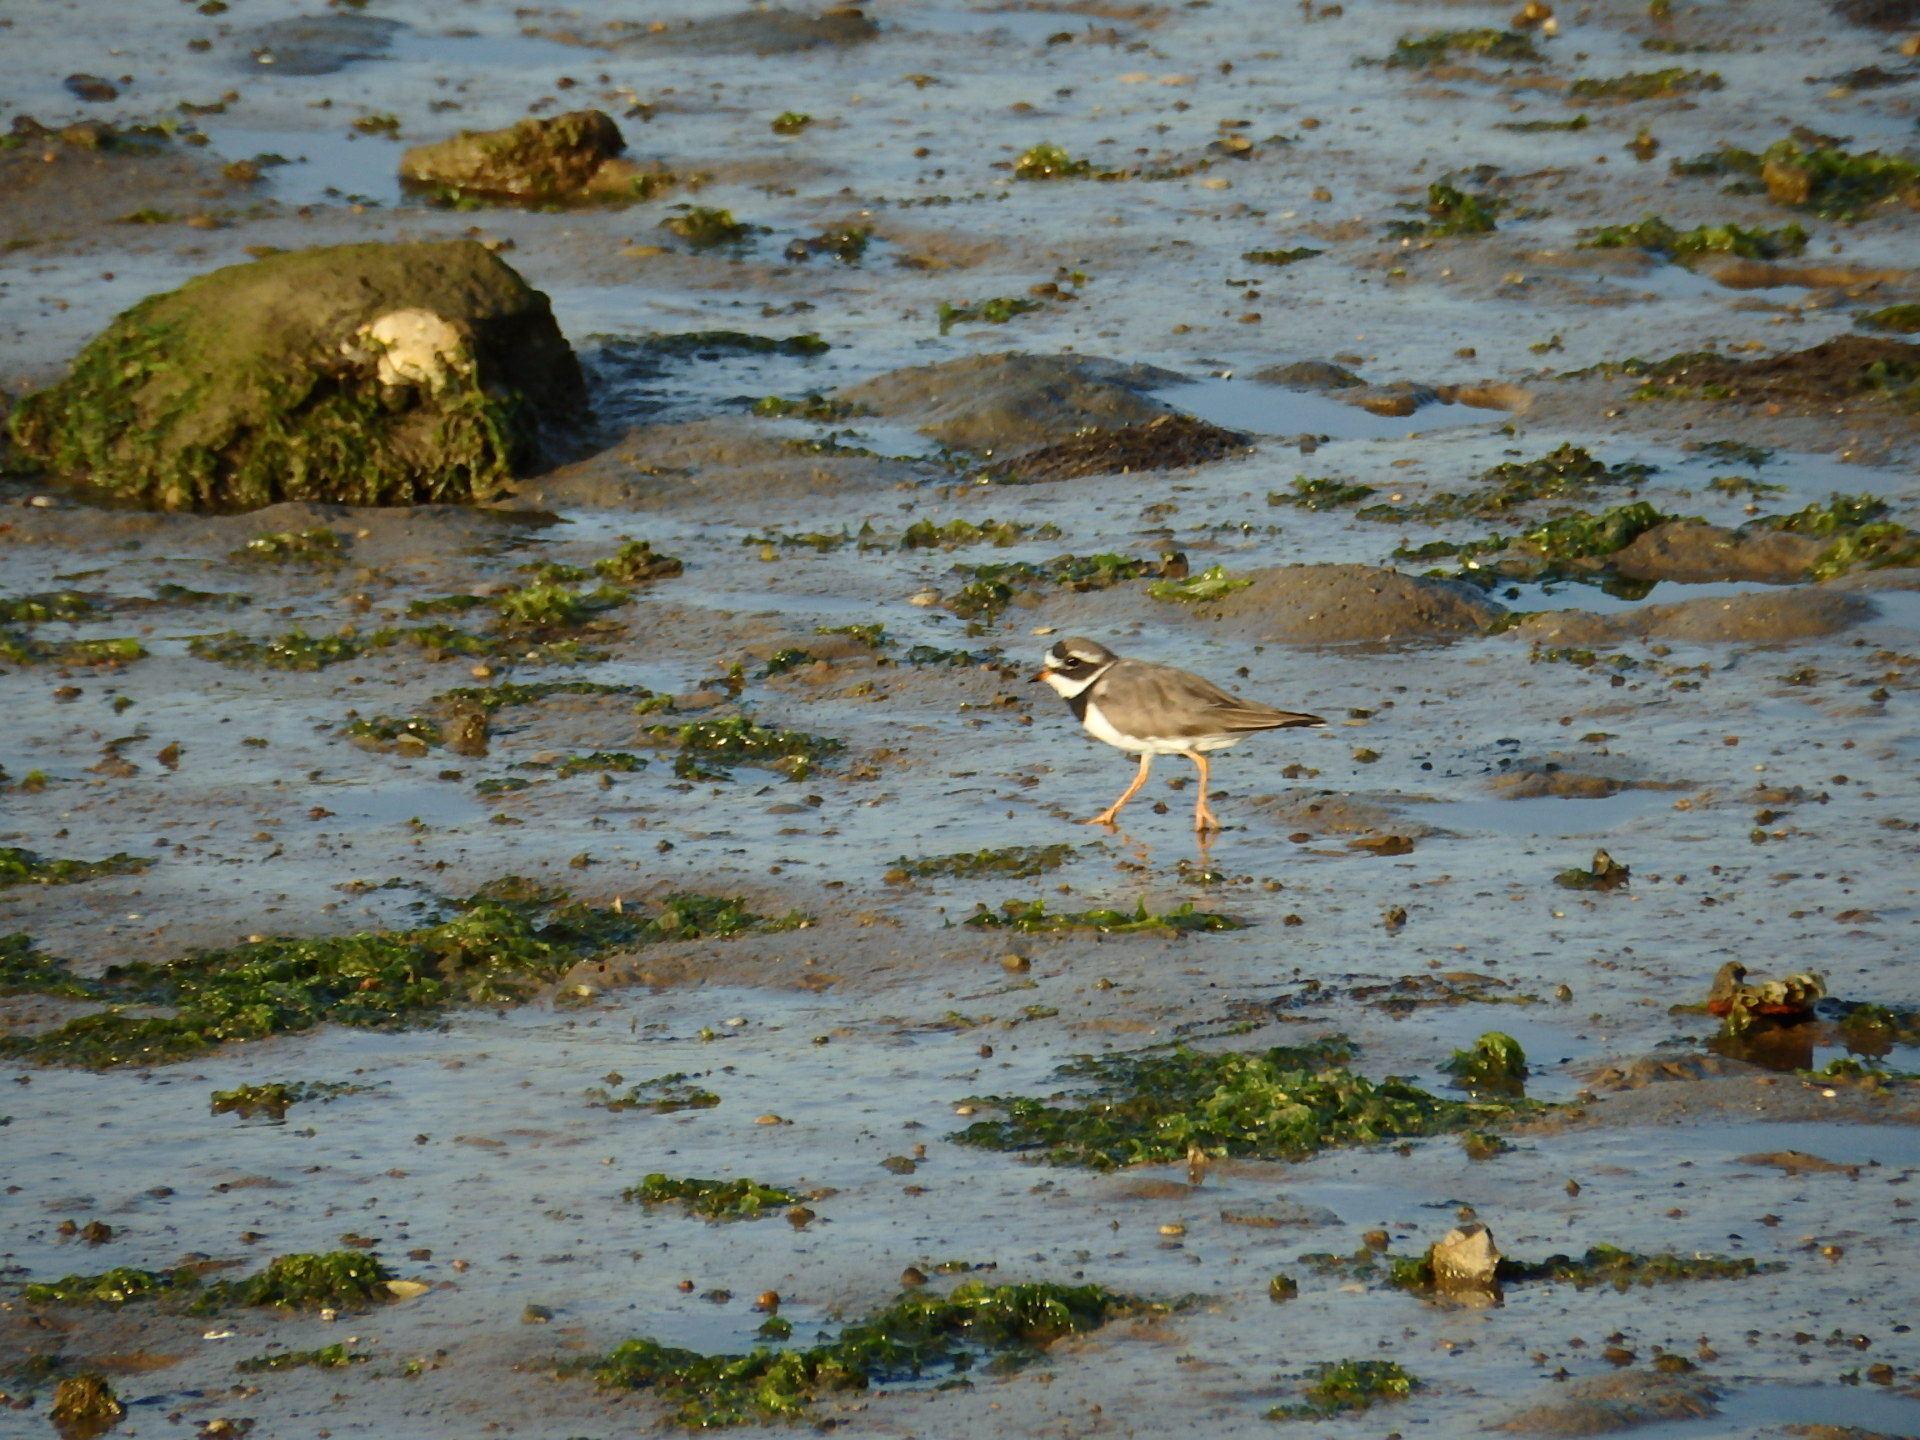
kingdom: Animalia
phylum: Chordata
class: Aves
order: Charadriiformes
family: Charadriidae
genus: Charadrius
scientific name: Charadrius hiaticula
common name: Common ringed plover
